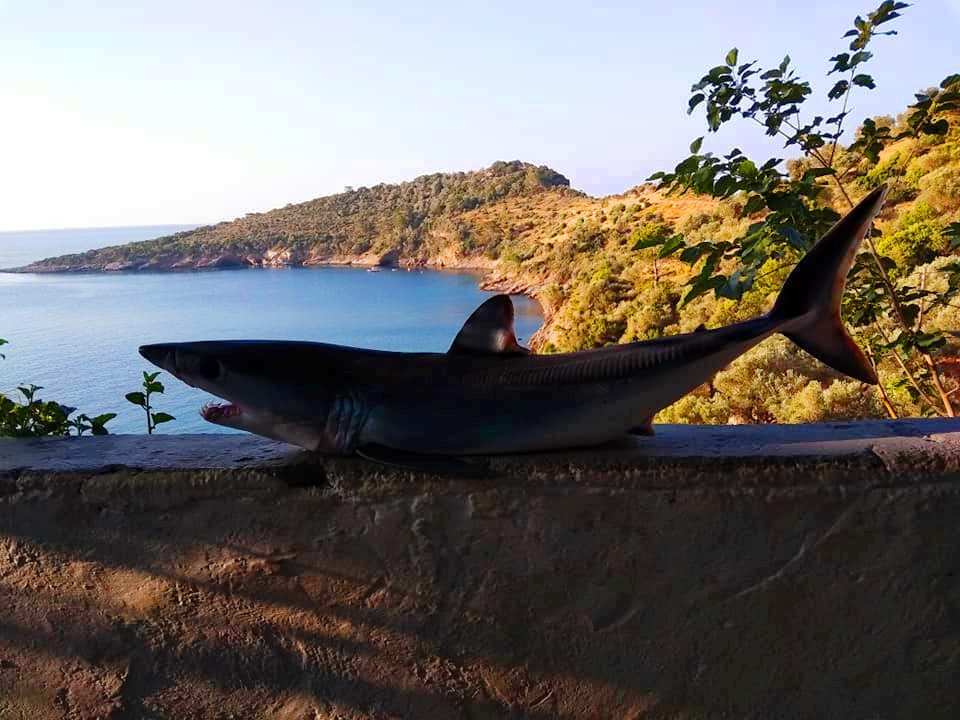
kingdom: Animalia
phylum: Chordata
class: Elasmobranchii
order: Lamniformes
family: Lamnidae
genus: Isurus
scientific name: Isurus oxyrinchus
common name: Shortfin mako
